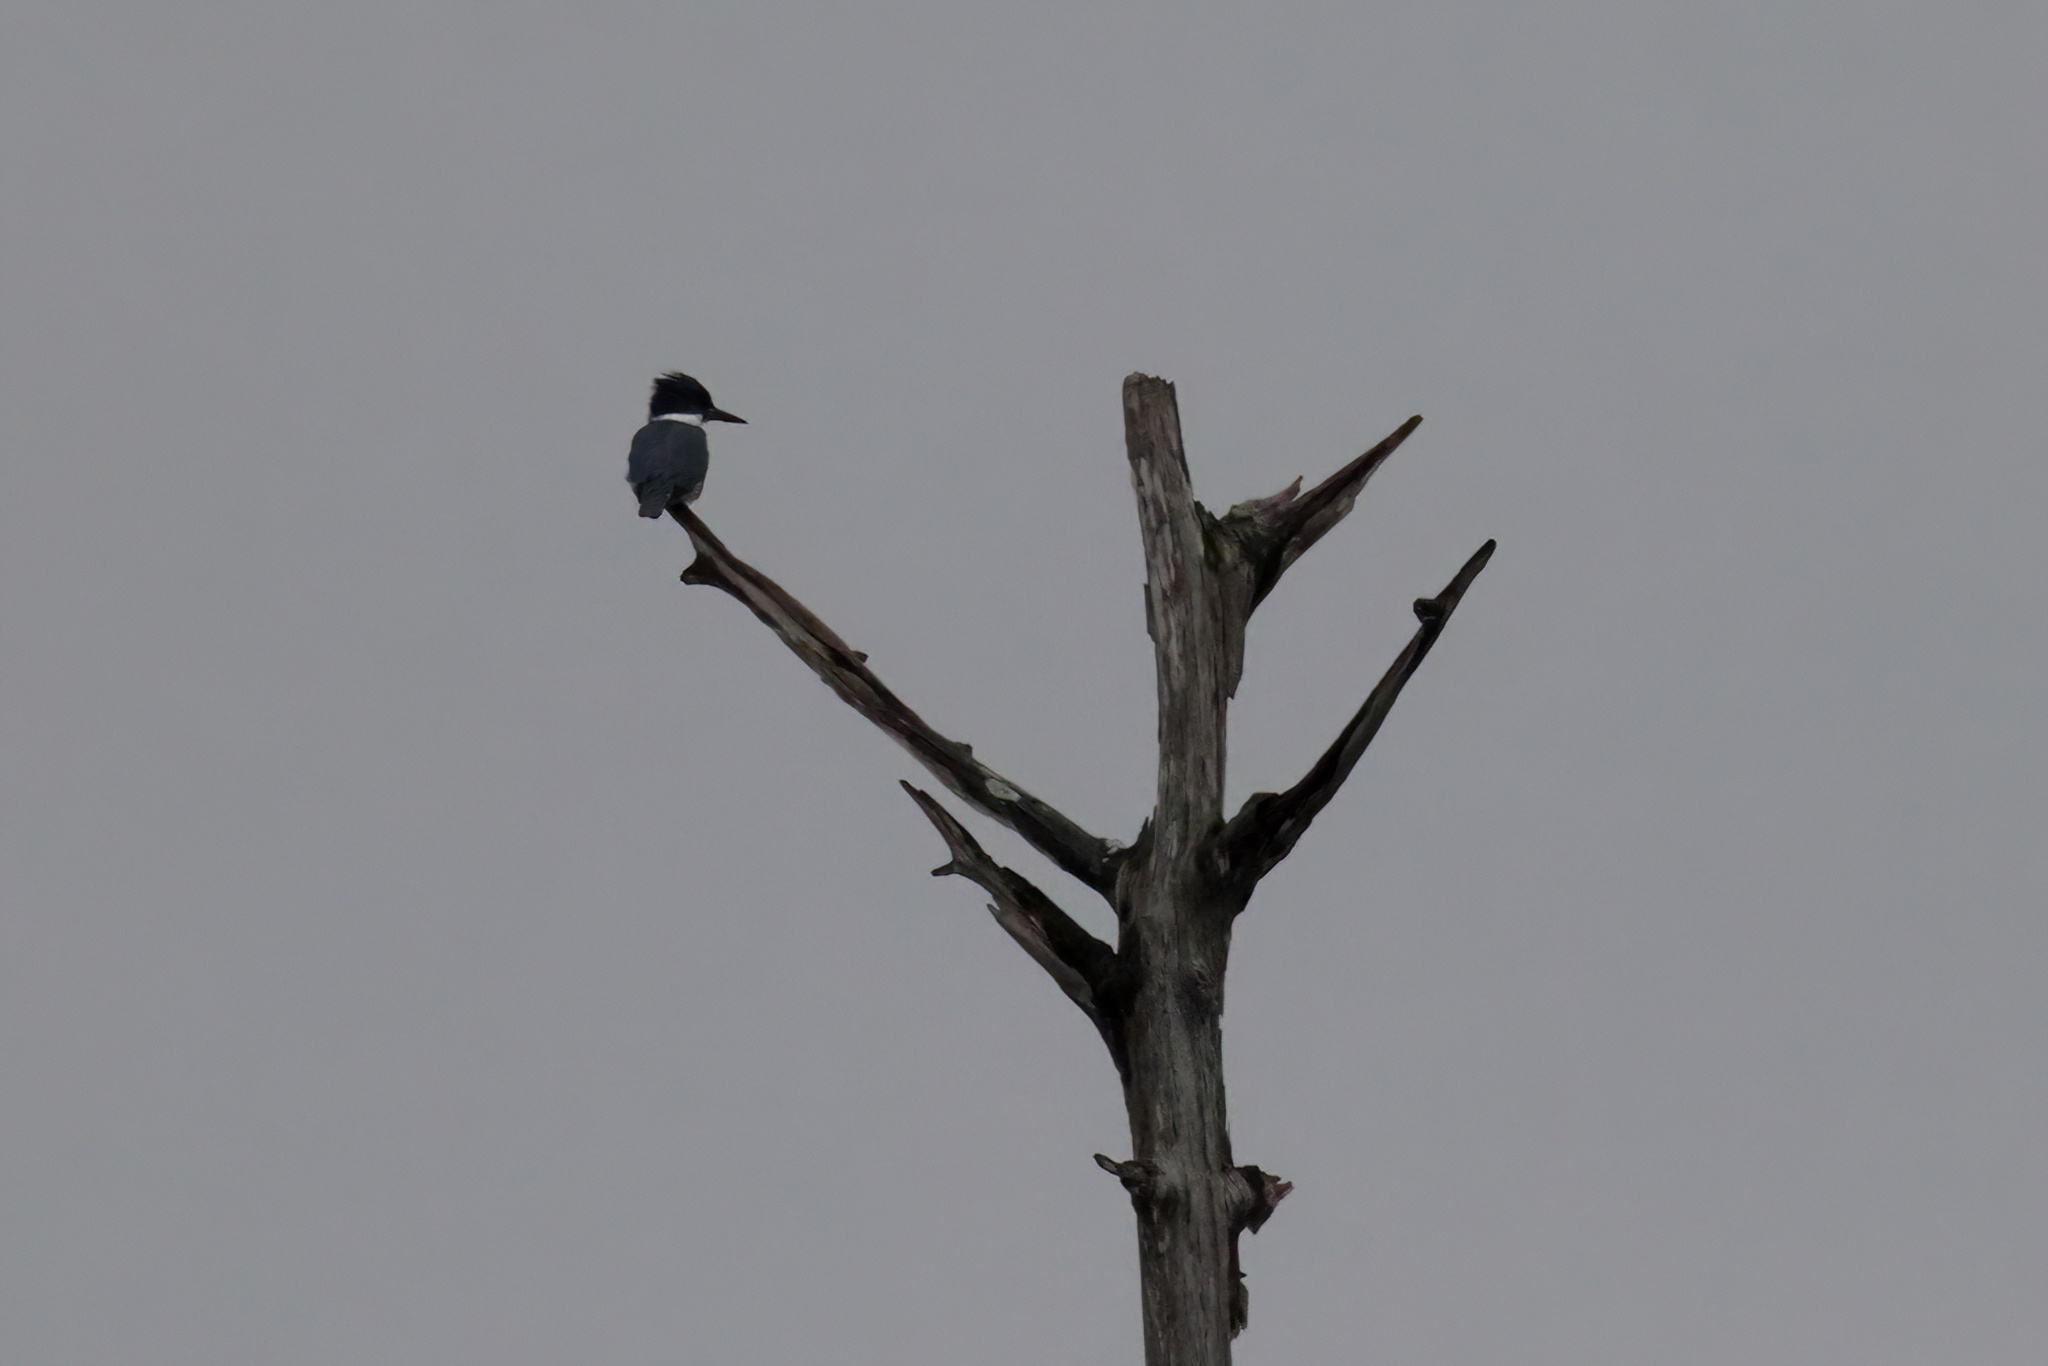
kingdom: Animalia
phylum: Chordata
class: Aves
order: Coraciiformes
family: Alcedinidae
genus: Megaceryle
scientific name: Megaceryle alcyon
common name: Belted kingfisher
